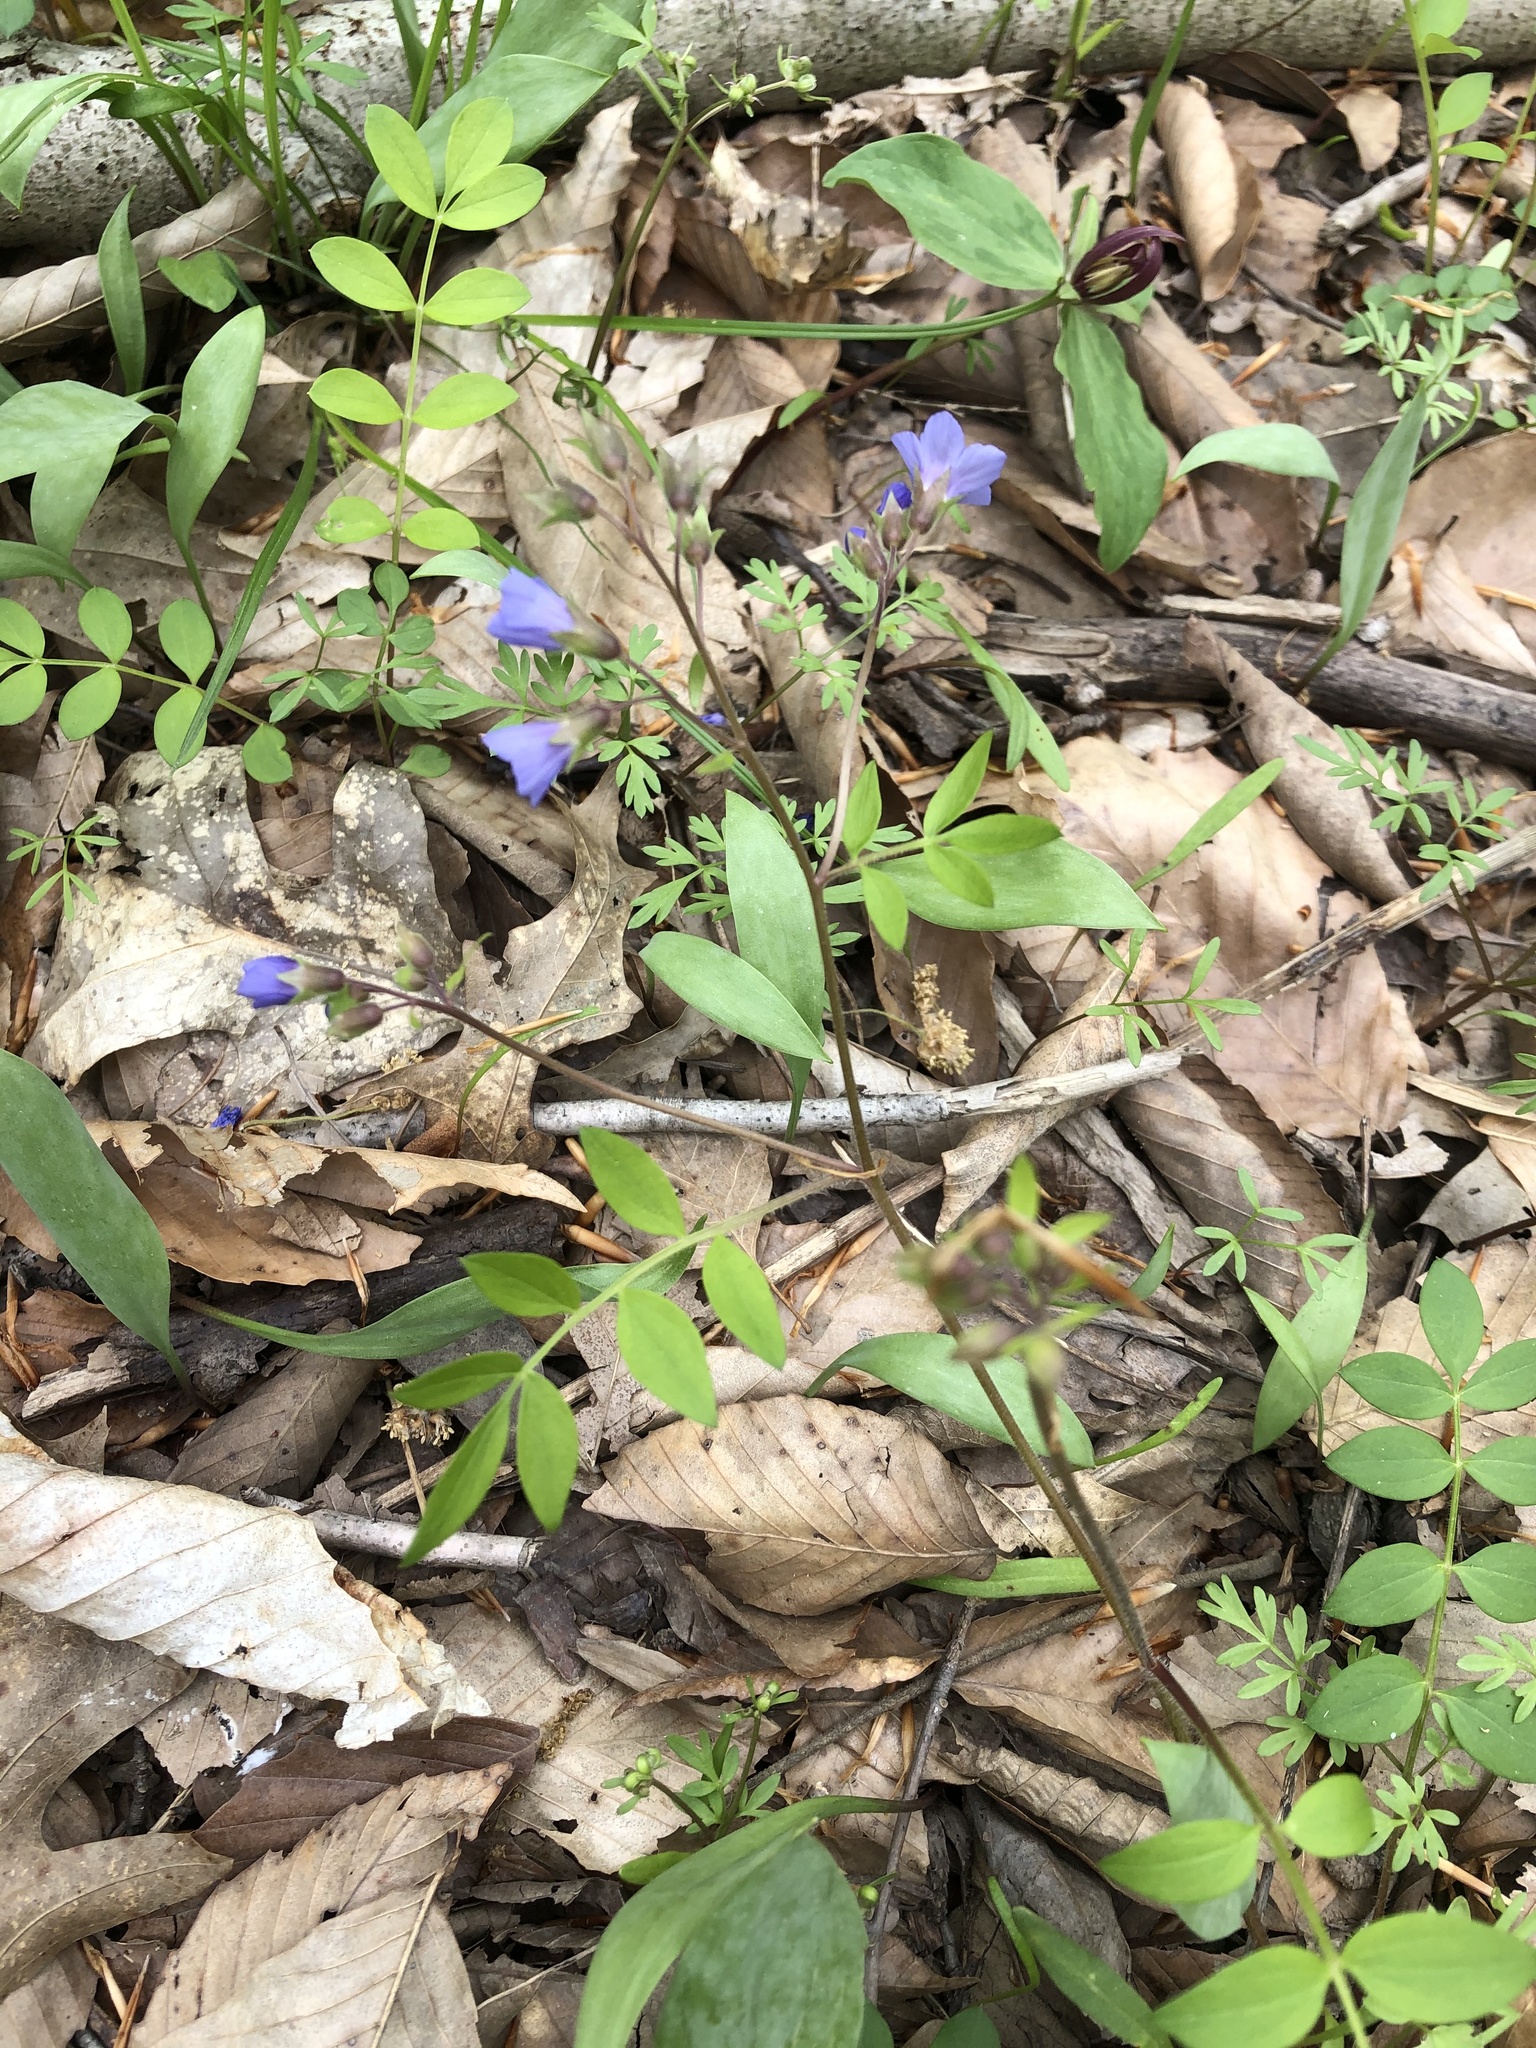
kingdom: Plantae
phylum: Tracheophyta
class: Magnoliopsida
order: Ericales
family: Polemoniaceae
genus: Polemonium
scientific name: Polemonium reptans
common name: Creeping jacob's-ladder
